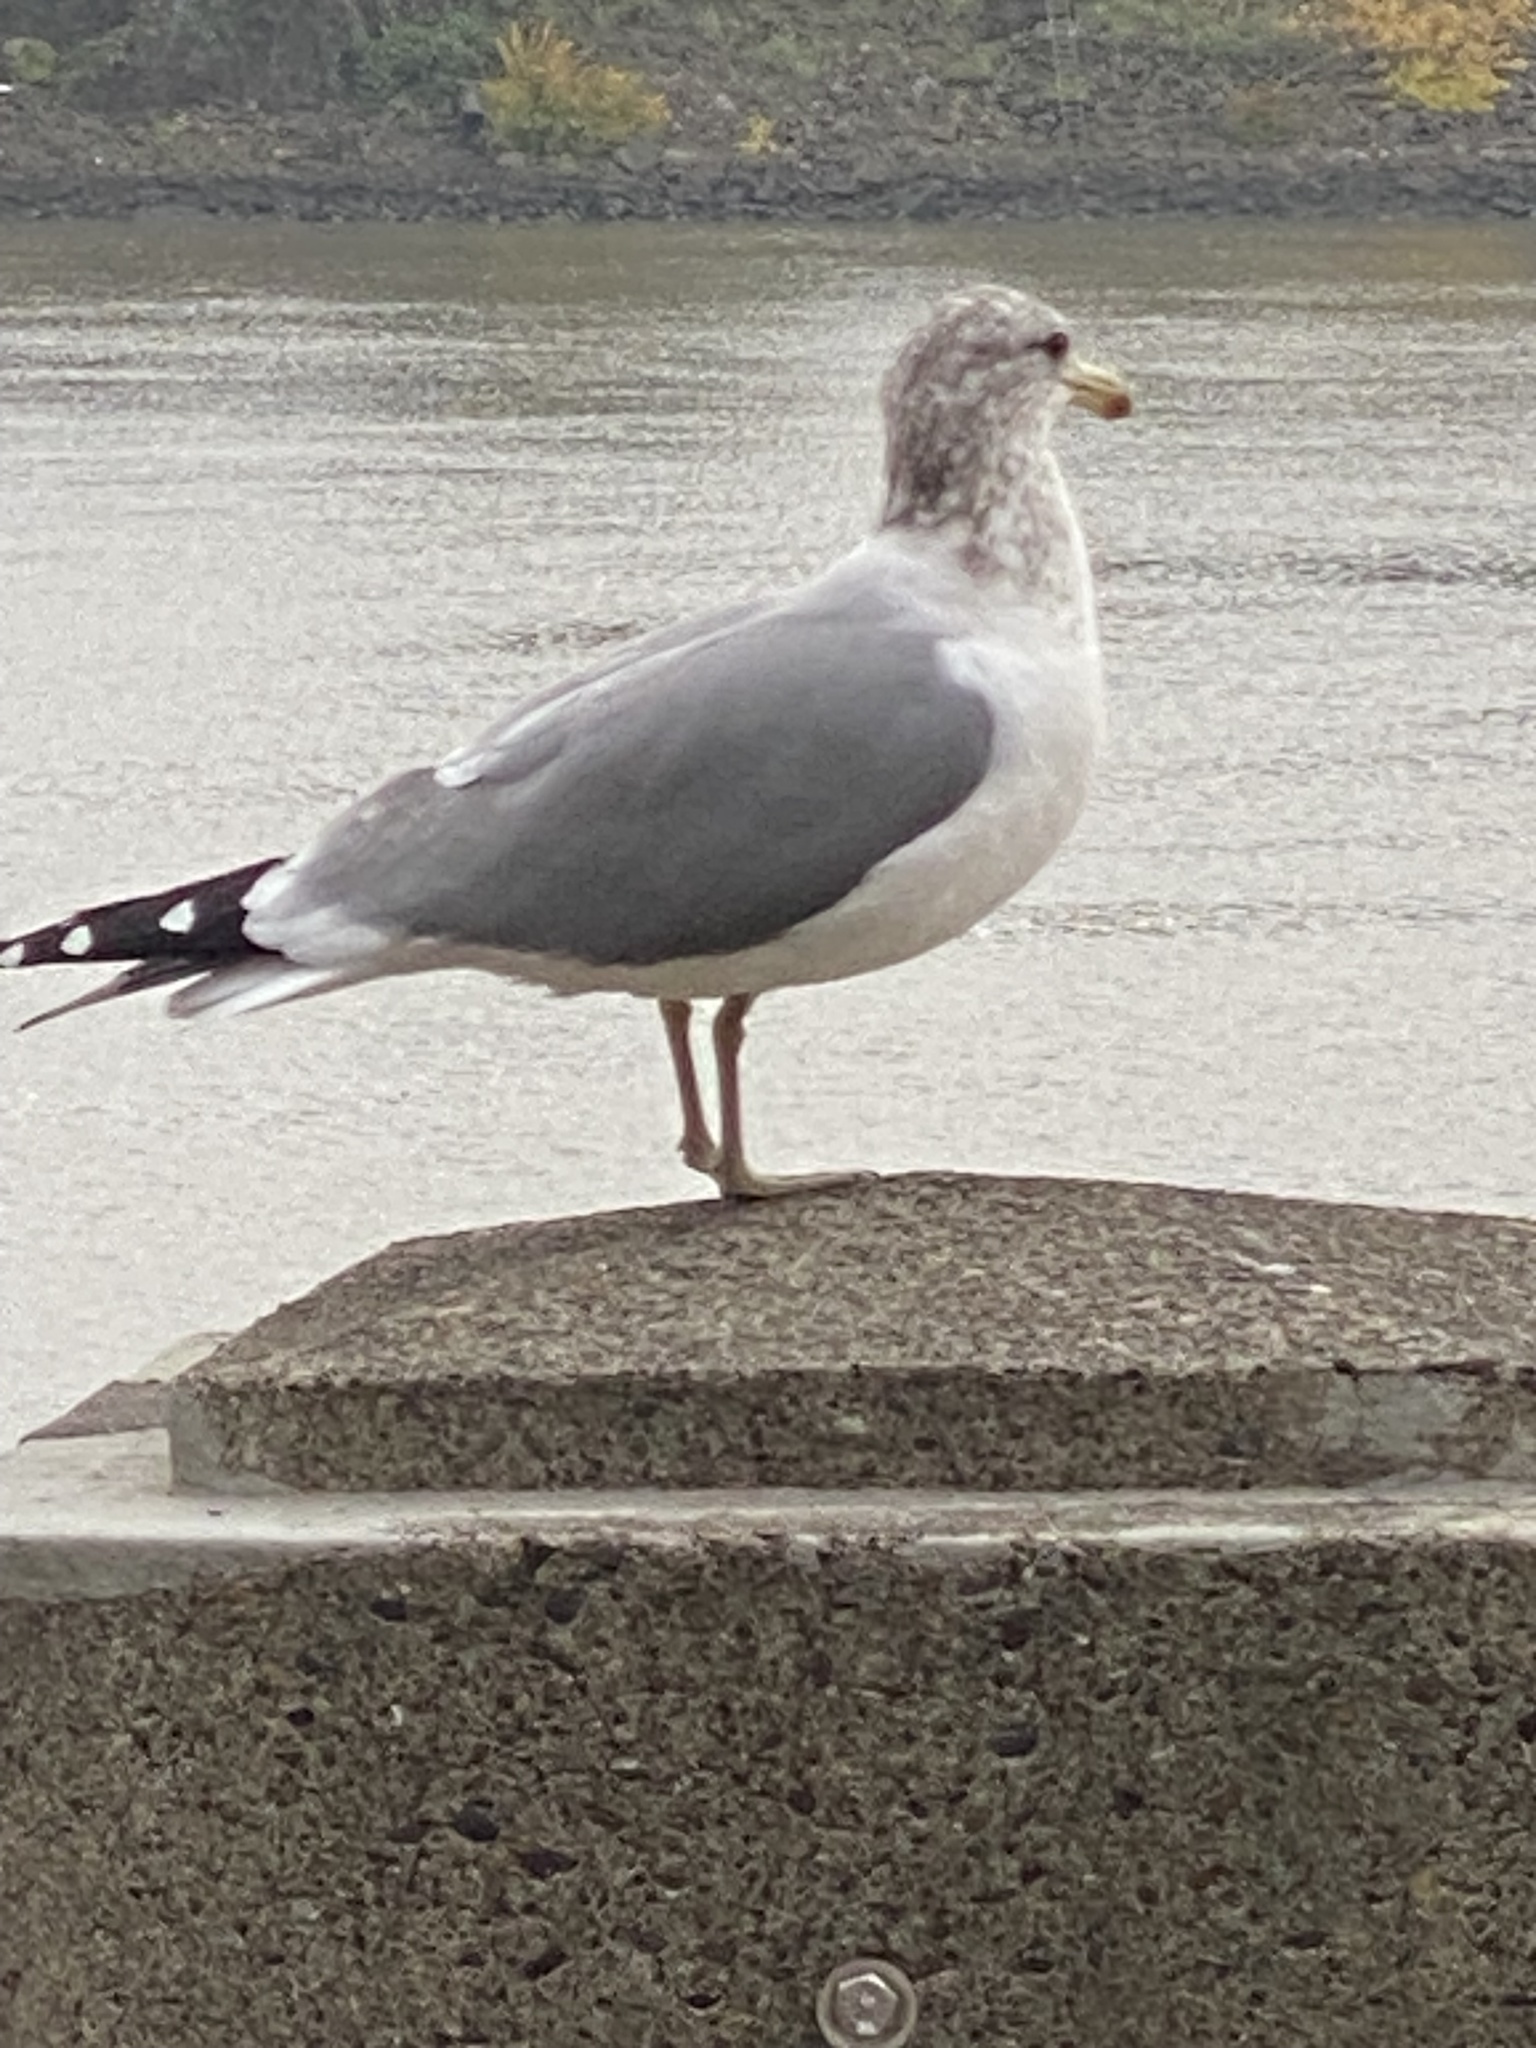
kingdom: Animalia
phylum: Chordata
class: Aves
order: Charadriiformes
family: Laridae
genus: Larus
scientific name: Larus californicus
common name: California gull
